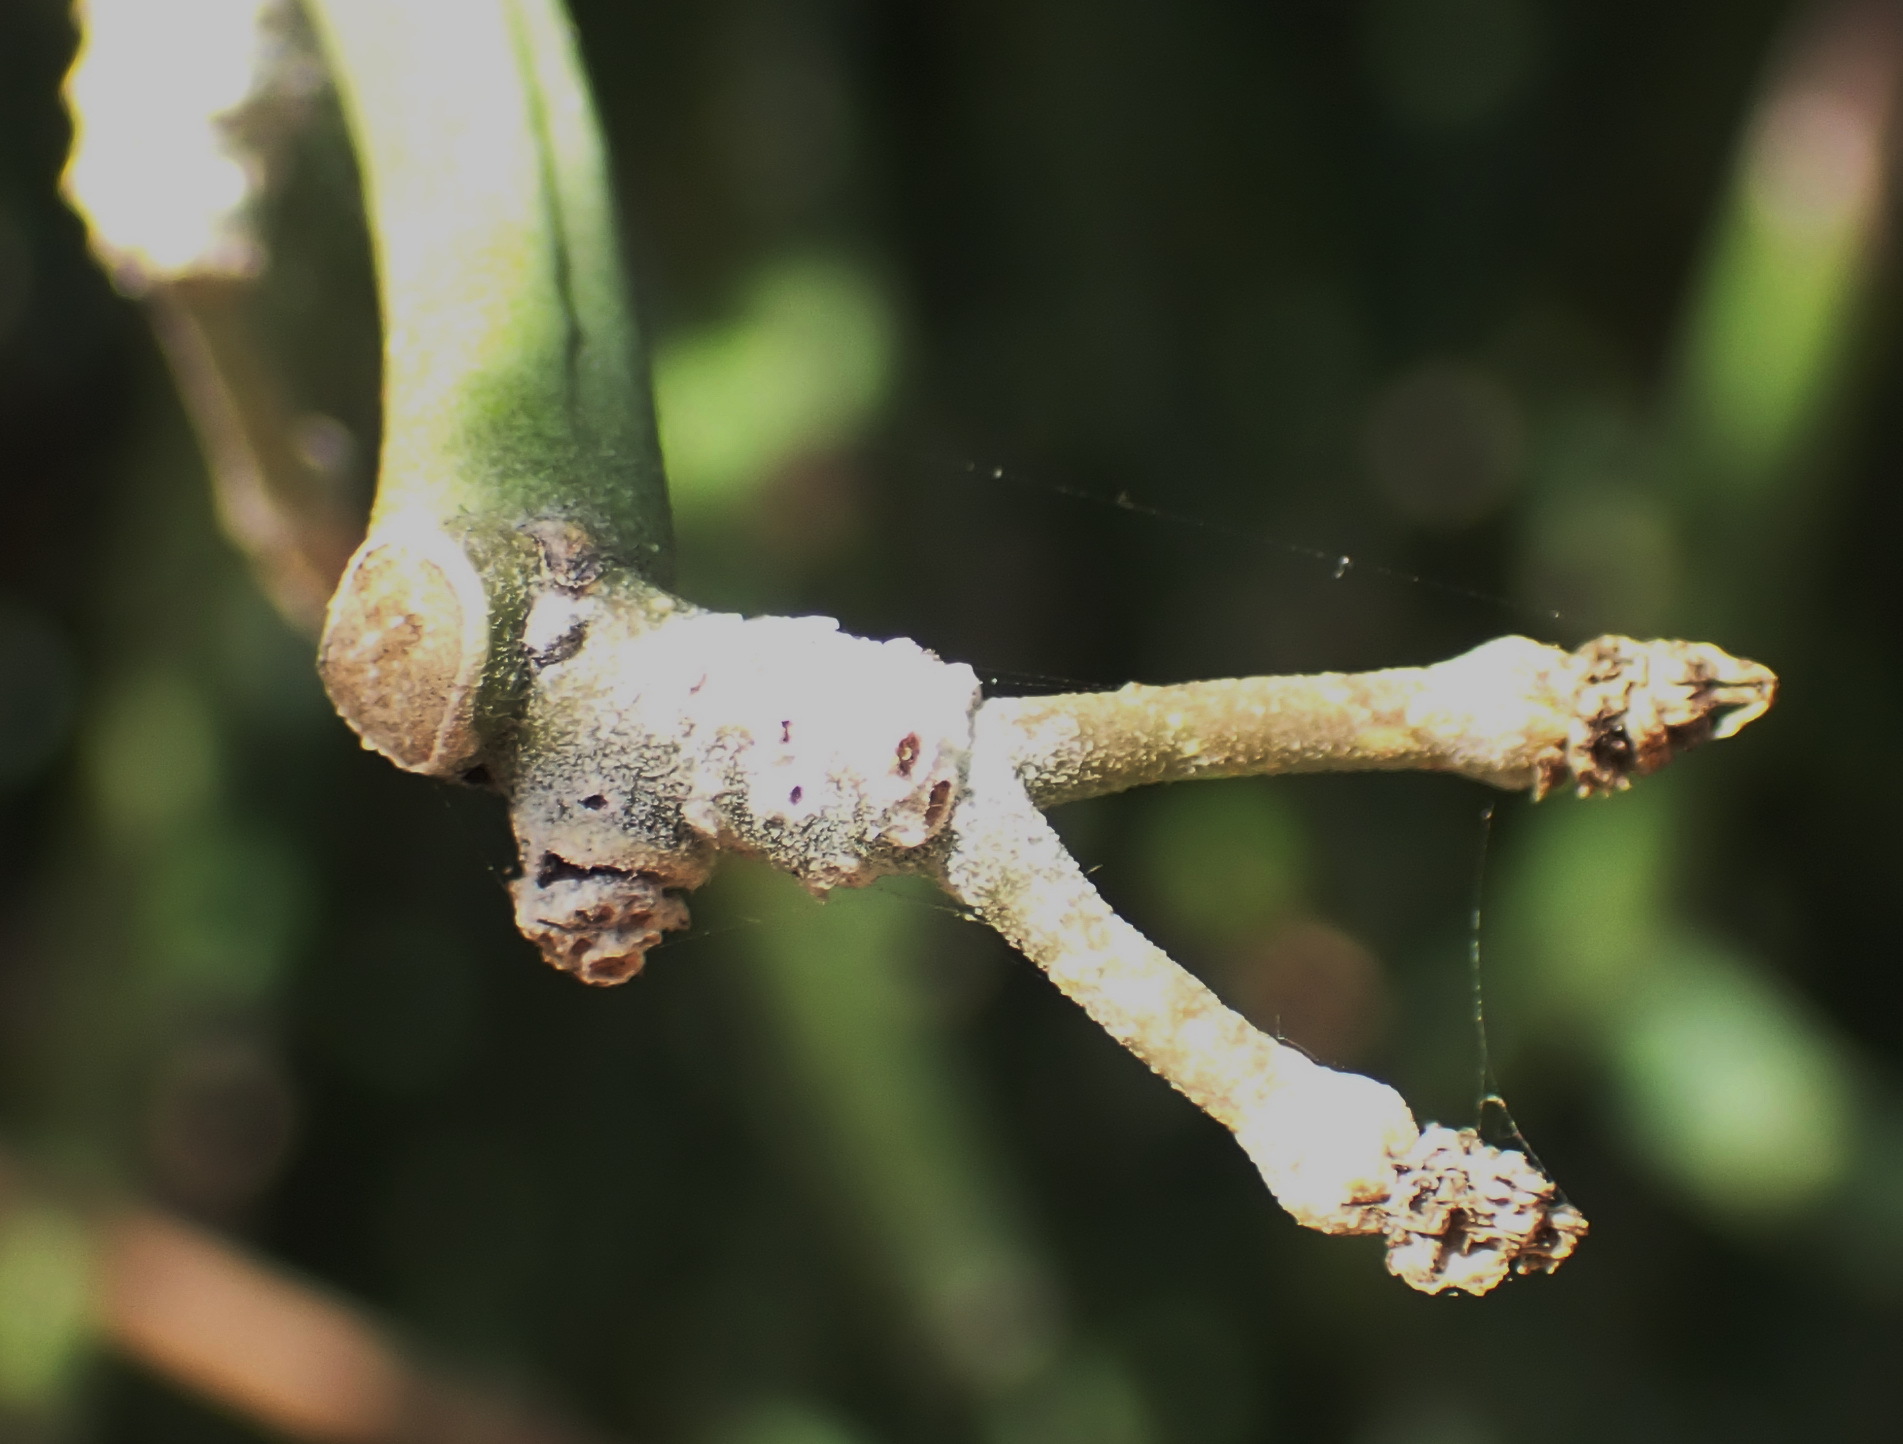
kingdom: Plantae
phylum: Tracheophyta
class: Magnoliopsida
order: Gentianales
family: Apocynaceae
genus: Cynanchum
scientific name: Cynanchum viminale
